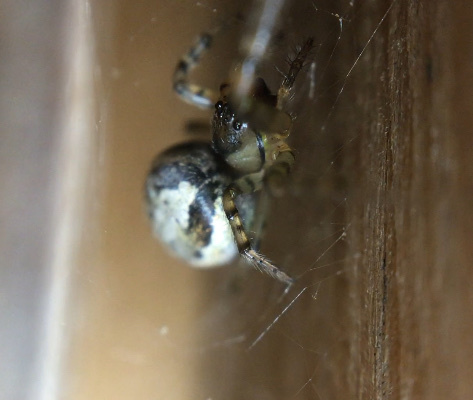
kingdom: Animalia
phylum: Arthropoda
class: Arachnida
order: Araneae
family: Araneidae
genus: Zygiella
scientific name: Zygiella x-notata
